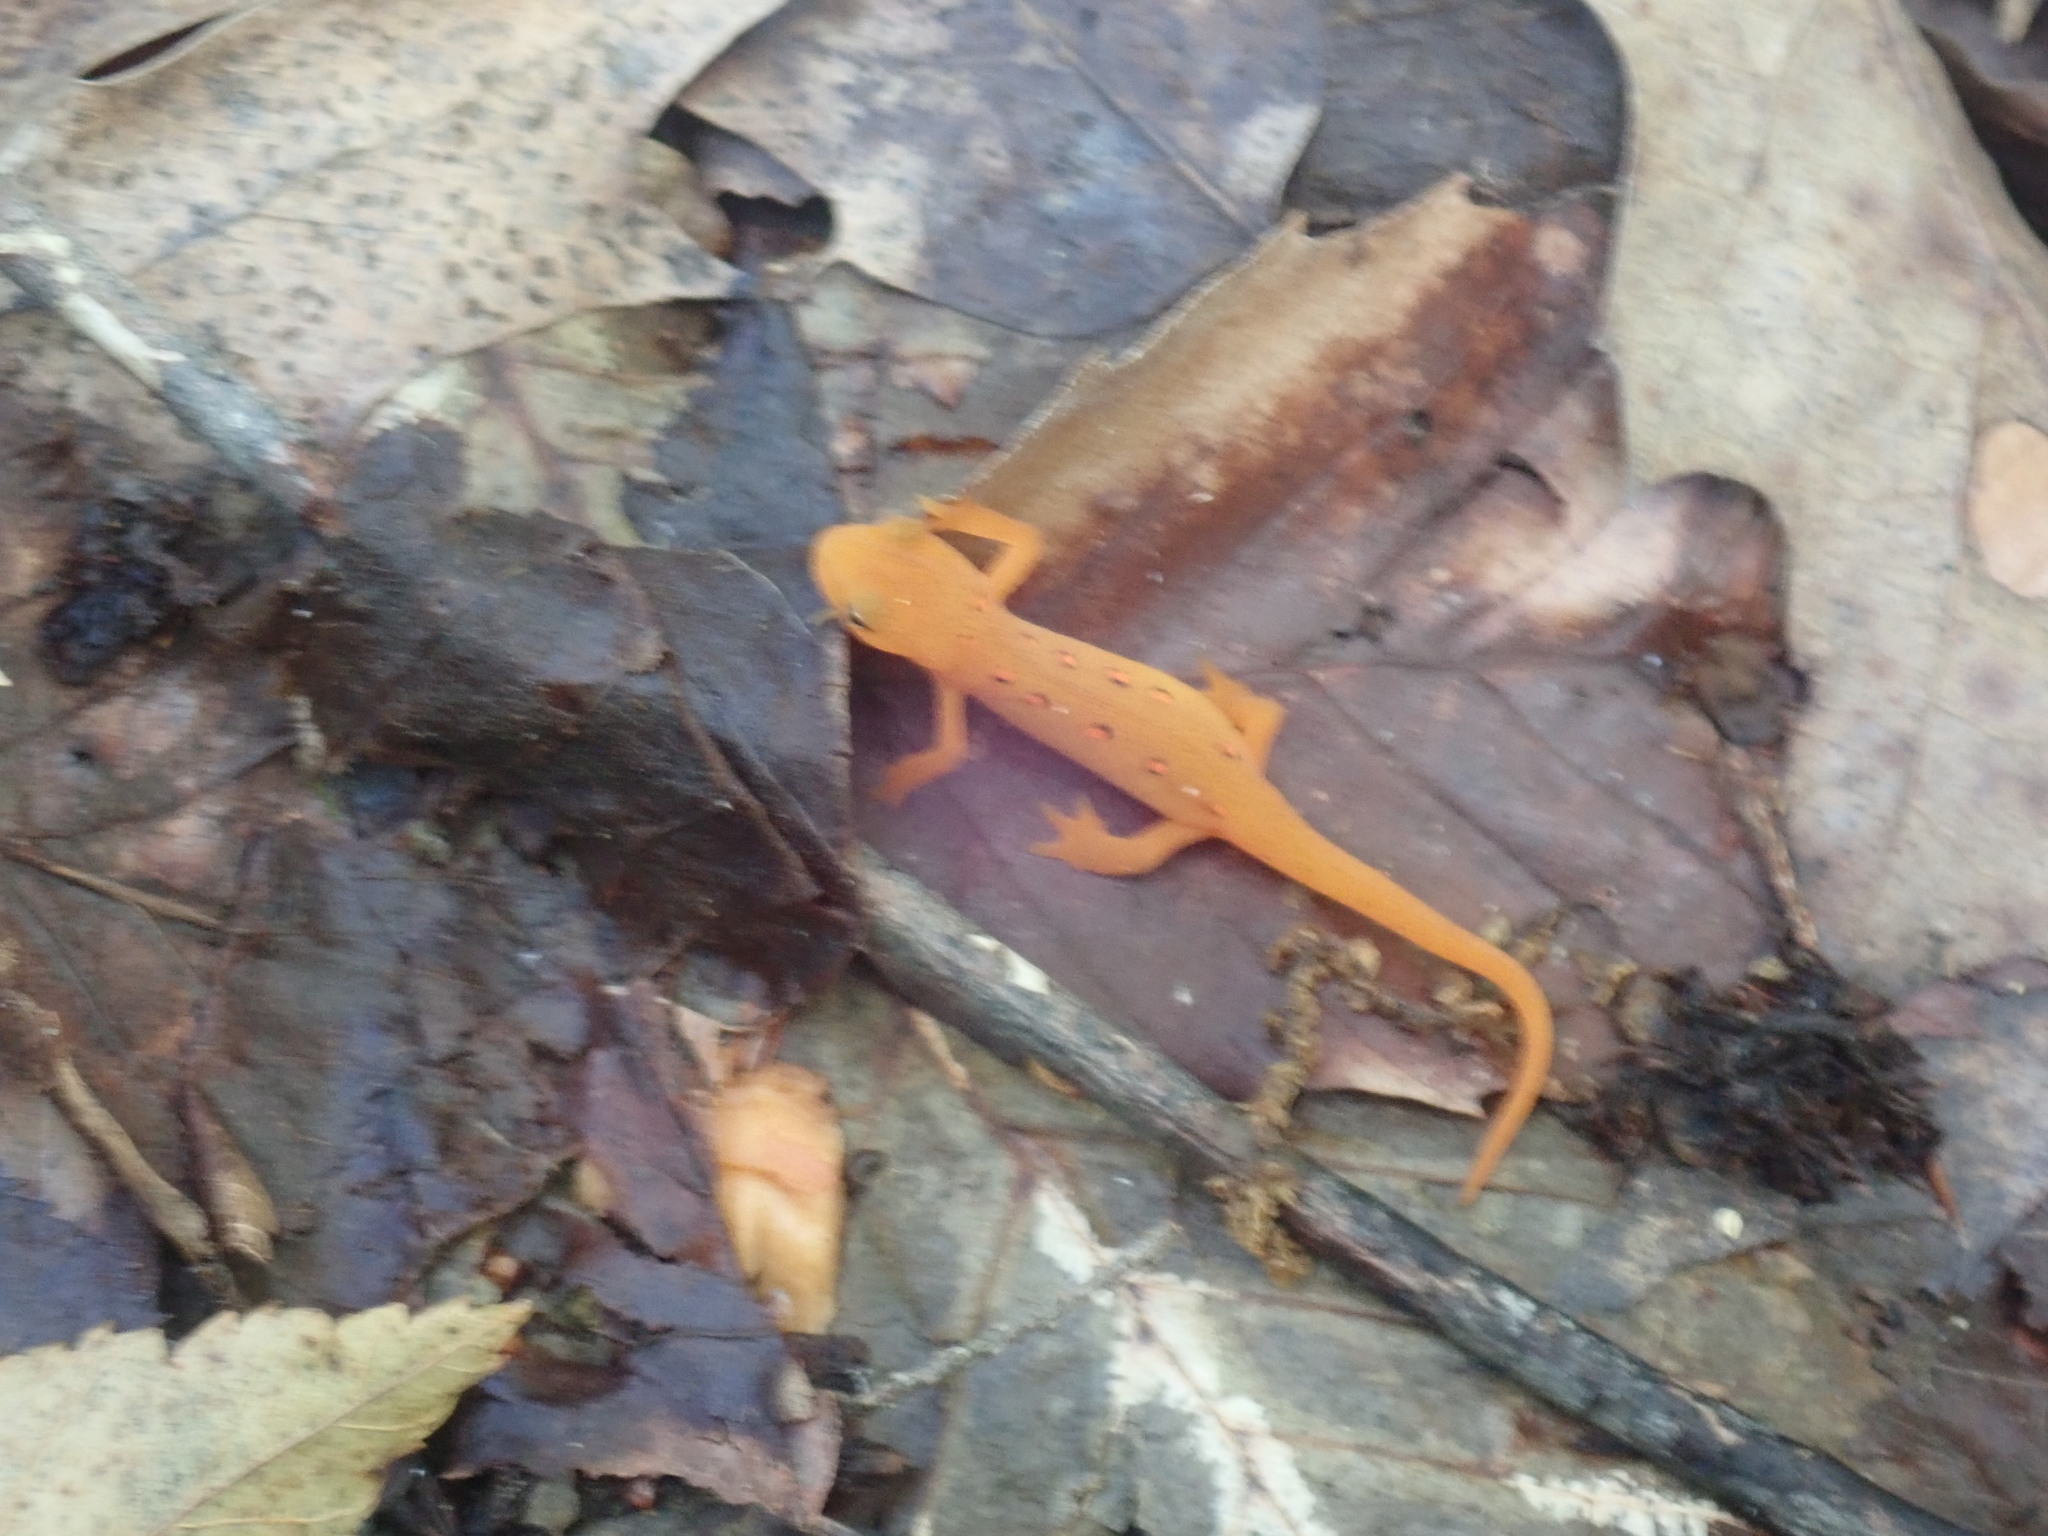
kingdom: Animalia
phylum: Chordata
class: Amphibia
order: Caudata
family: Salamandridae
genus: Notophthalmus
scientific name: Notophthalmus viridescens
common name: Eastern newt
